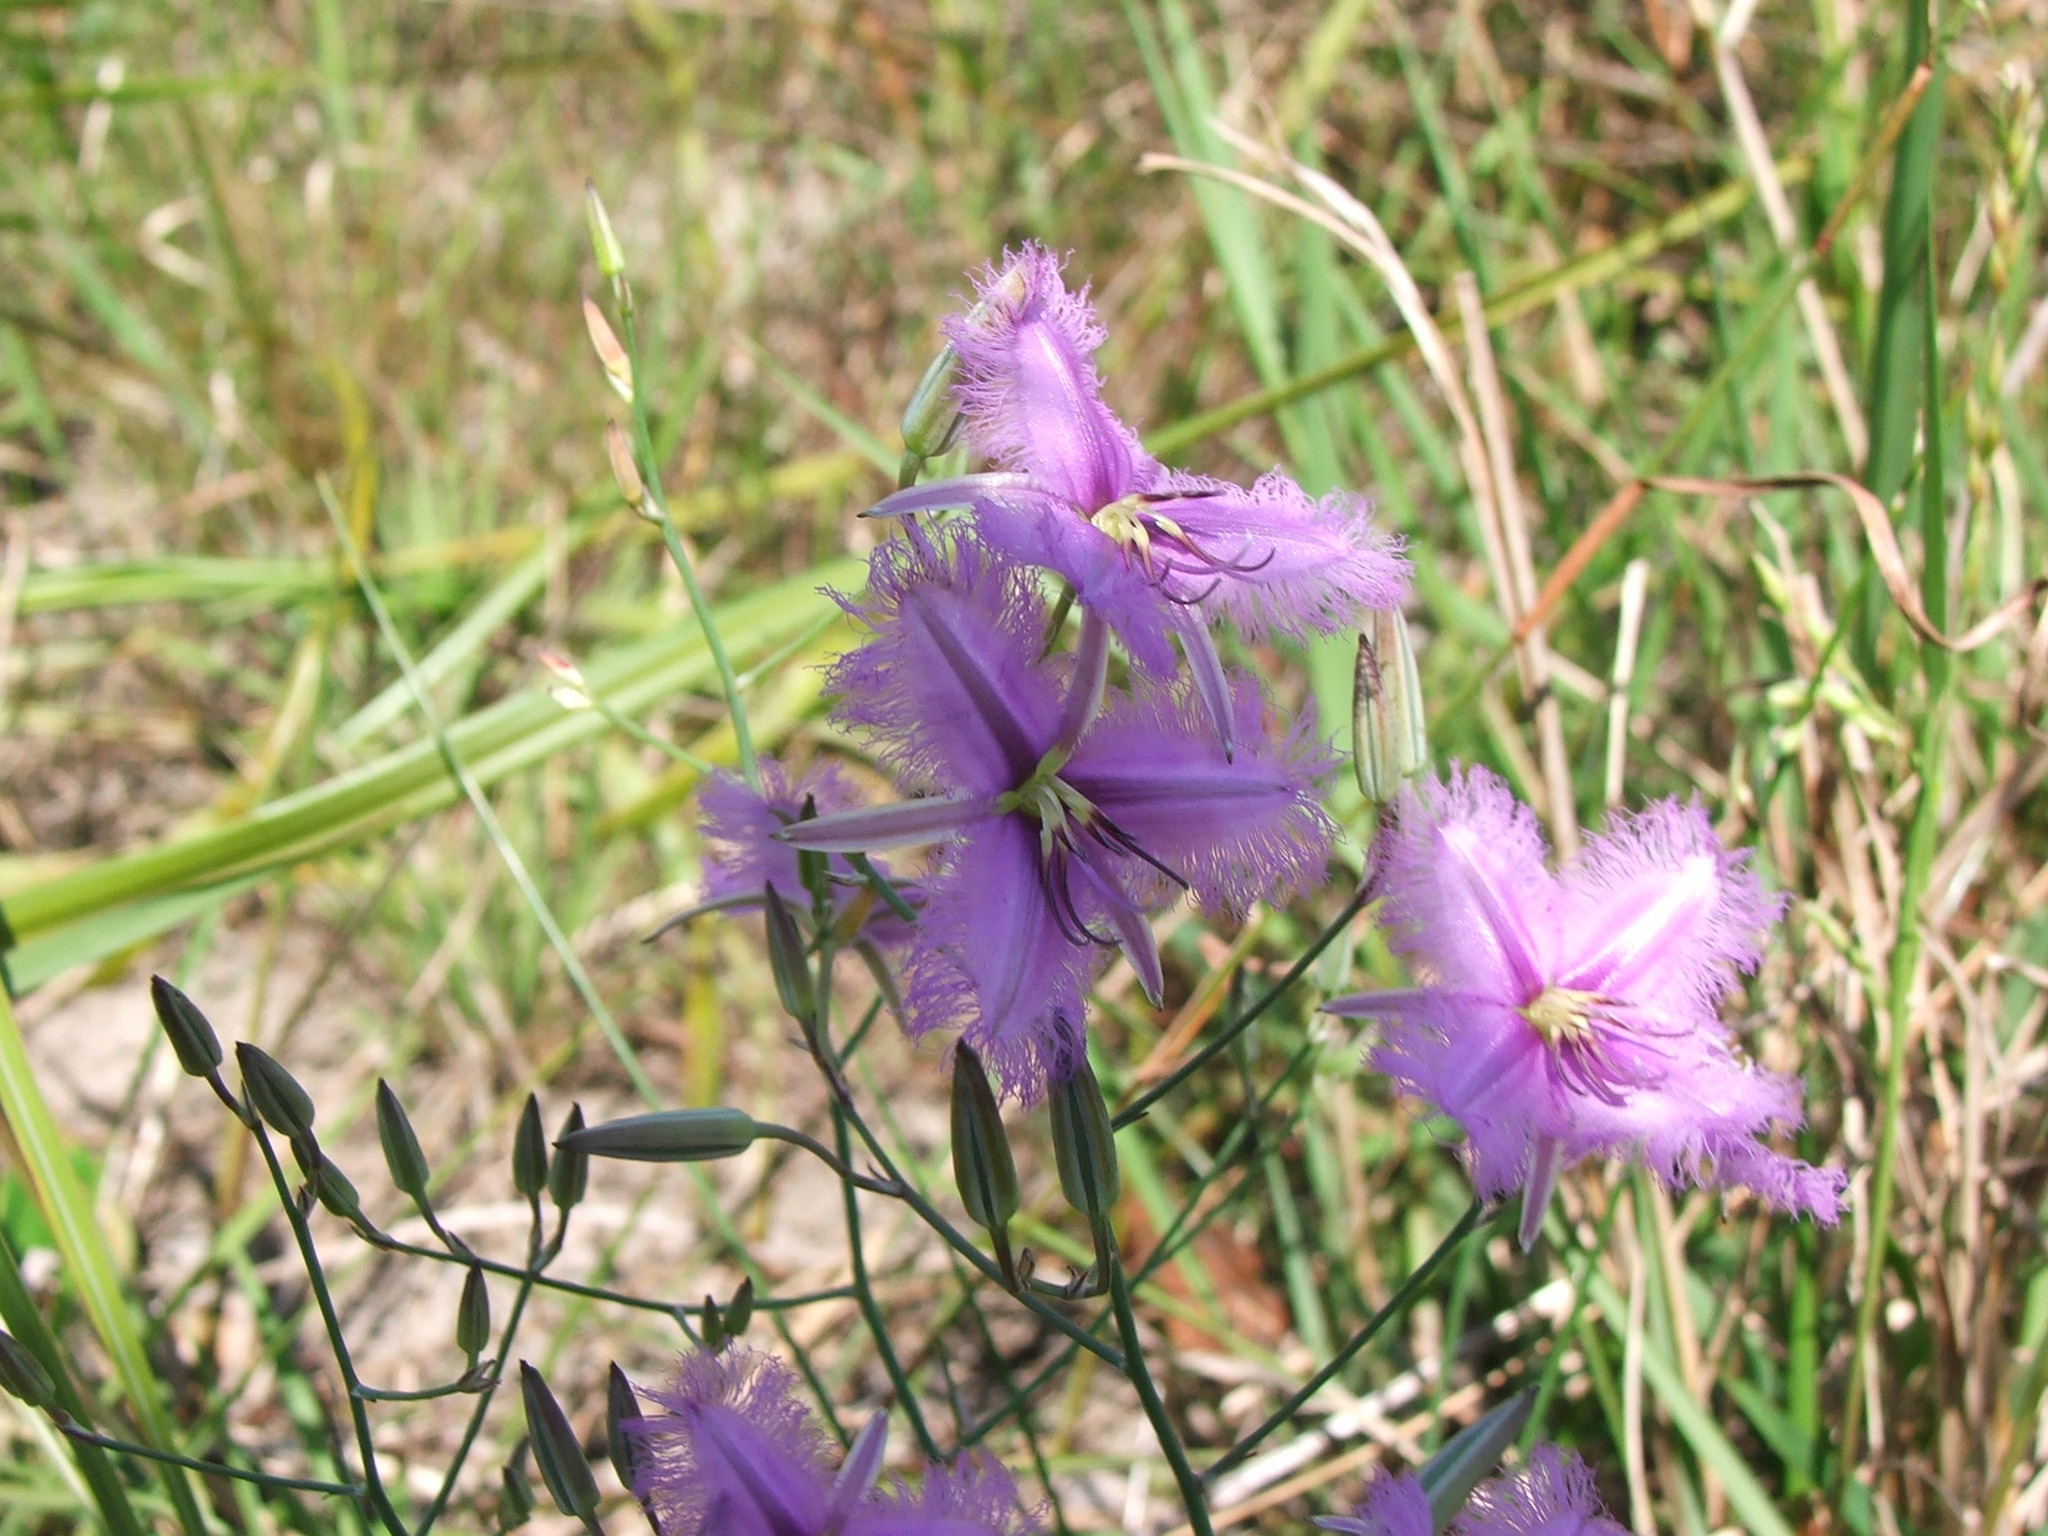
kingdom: Plantae
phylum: Tracheophyta
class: Liliopsida
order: Asparagales
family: Asparagaceae
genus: Thysanotus
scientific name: Thysanotus tuberosus
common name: Common fringed-lily
